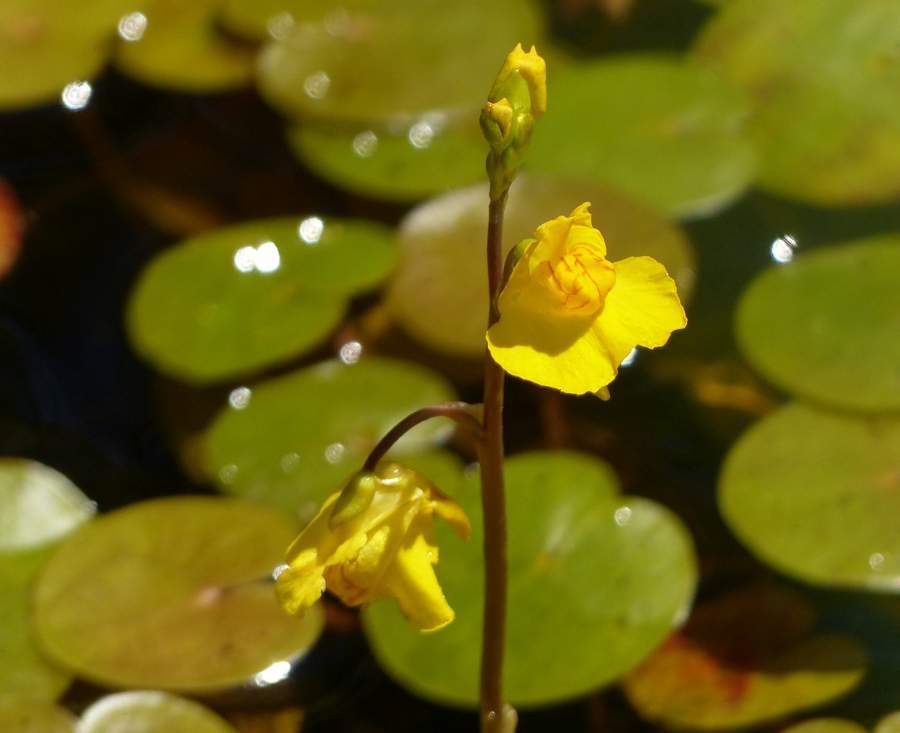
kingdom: Plantae
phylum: Tracheophyta
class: Magnoliopsida
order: Lamiales
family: Lentibulariaceae
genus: Utricularia
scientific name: Utricularia macrorhiza
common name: Common bladderwort
